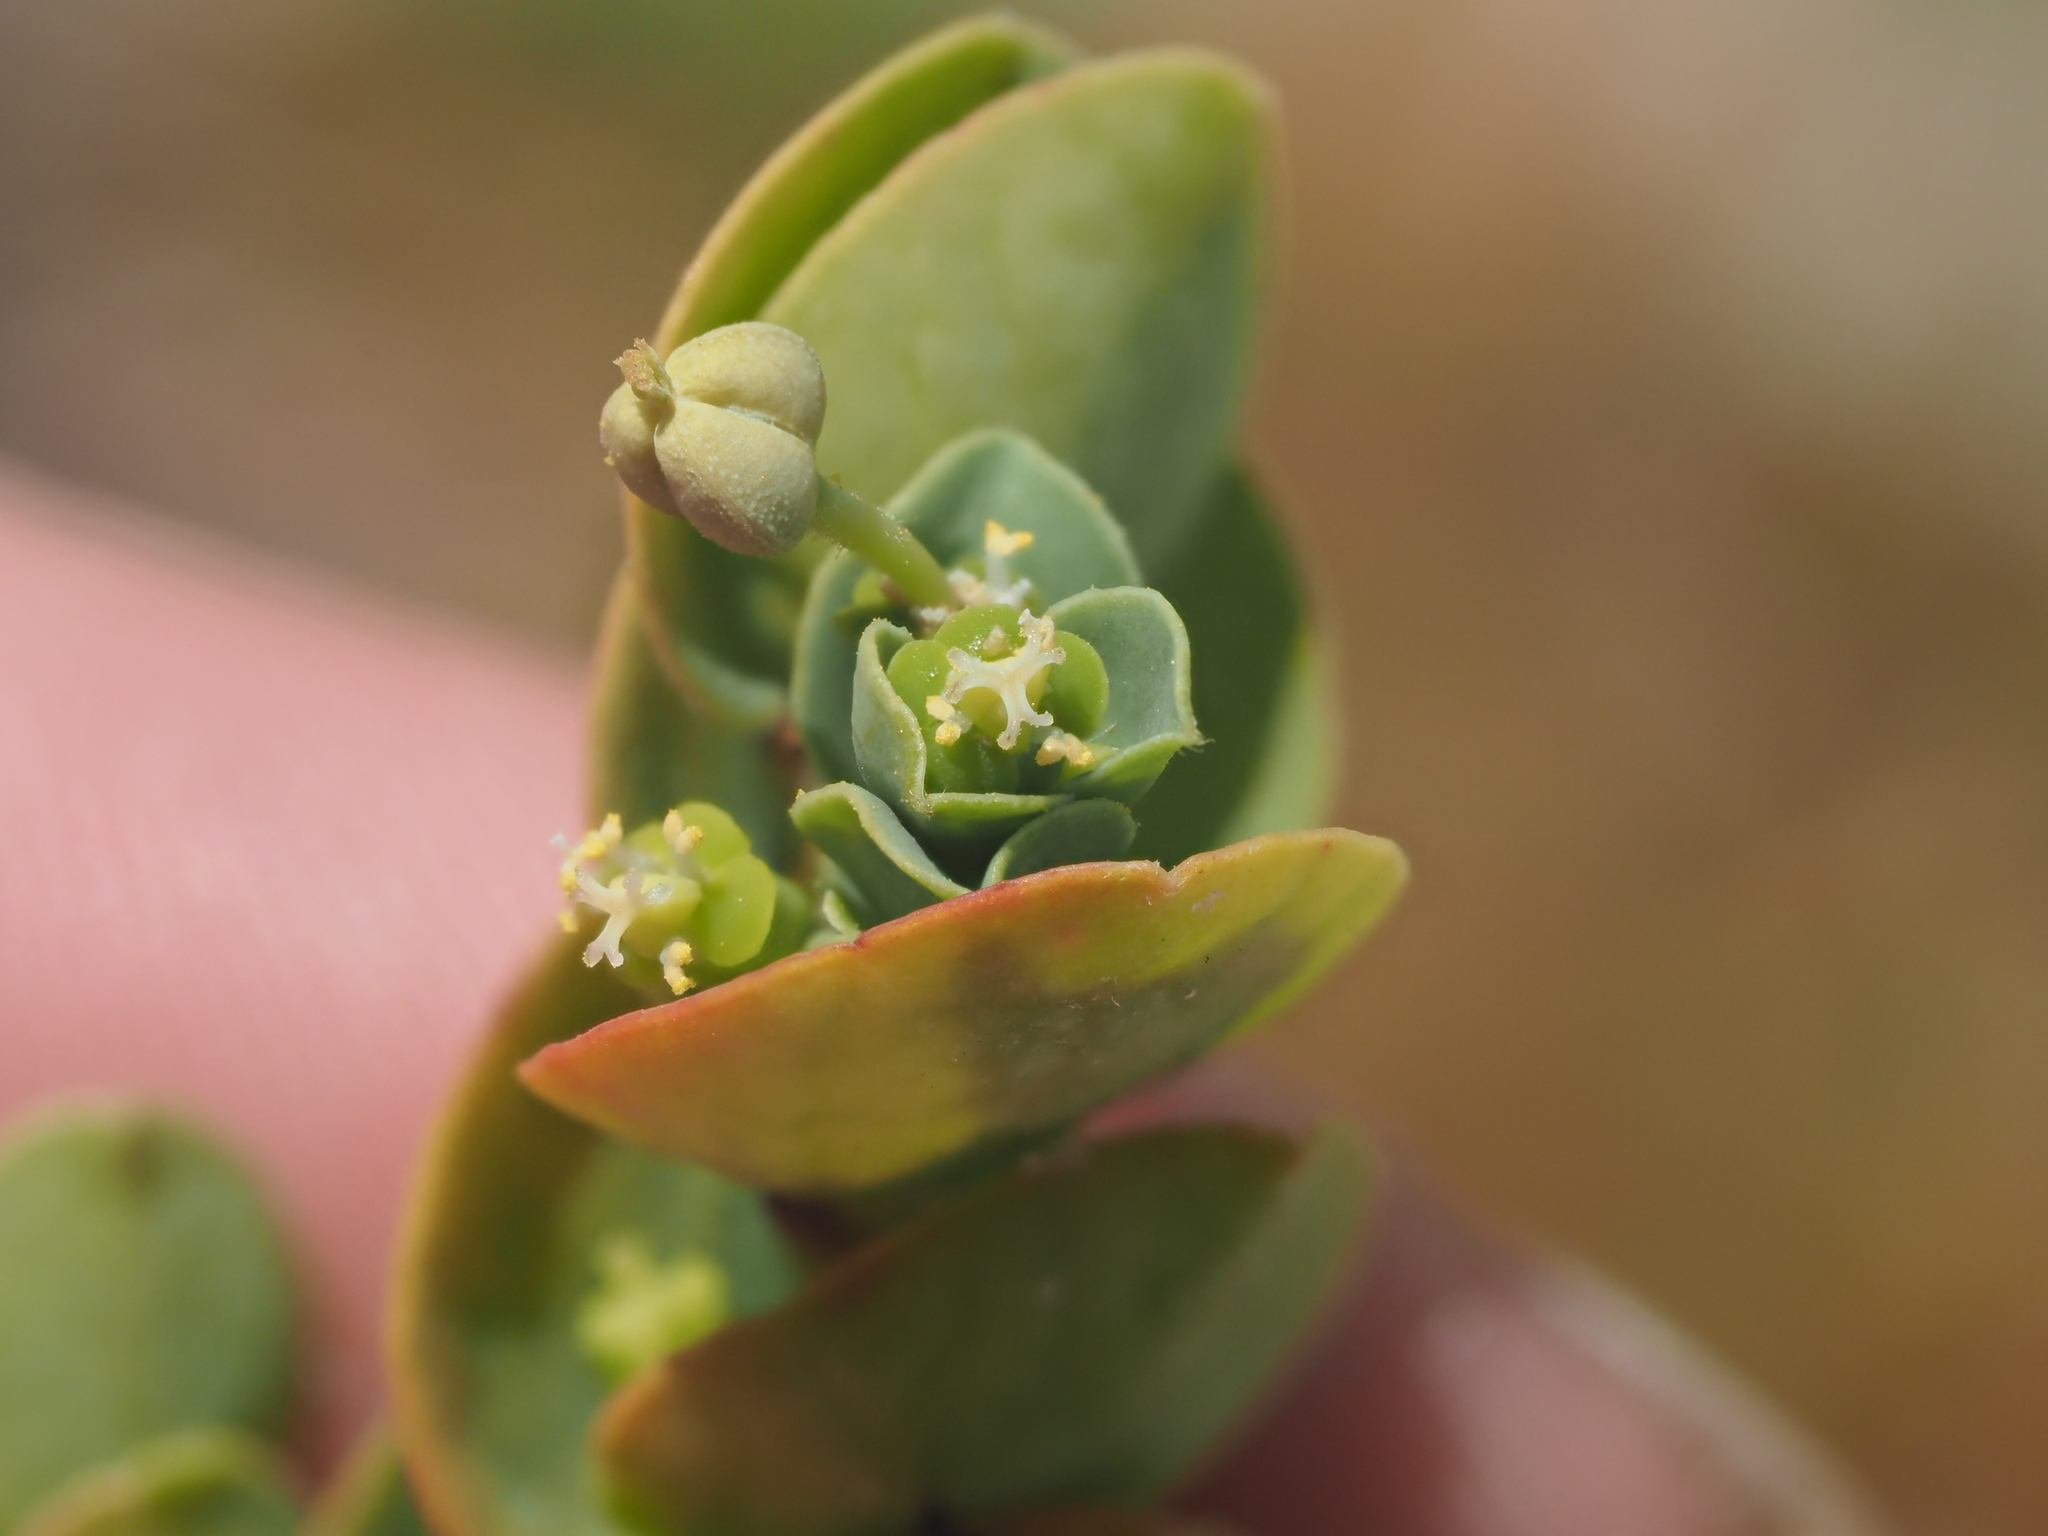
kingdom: Plantae
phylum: Tracheophyta
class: Magnoliopsida
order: Malpighiales
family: Euphorbiaceae
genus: Euphorbia
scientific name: Euphorbia degeneri
